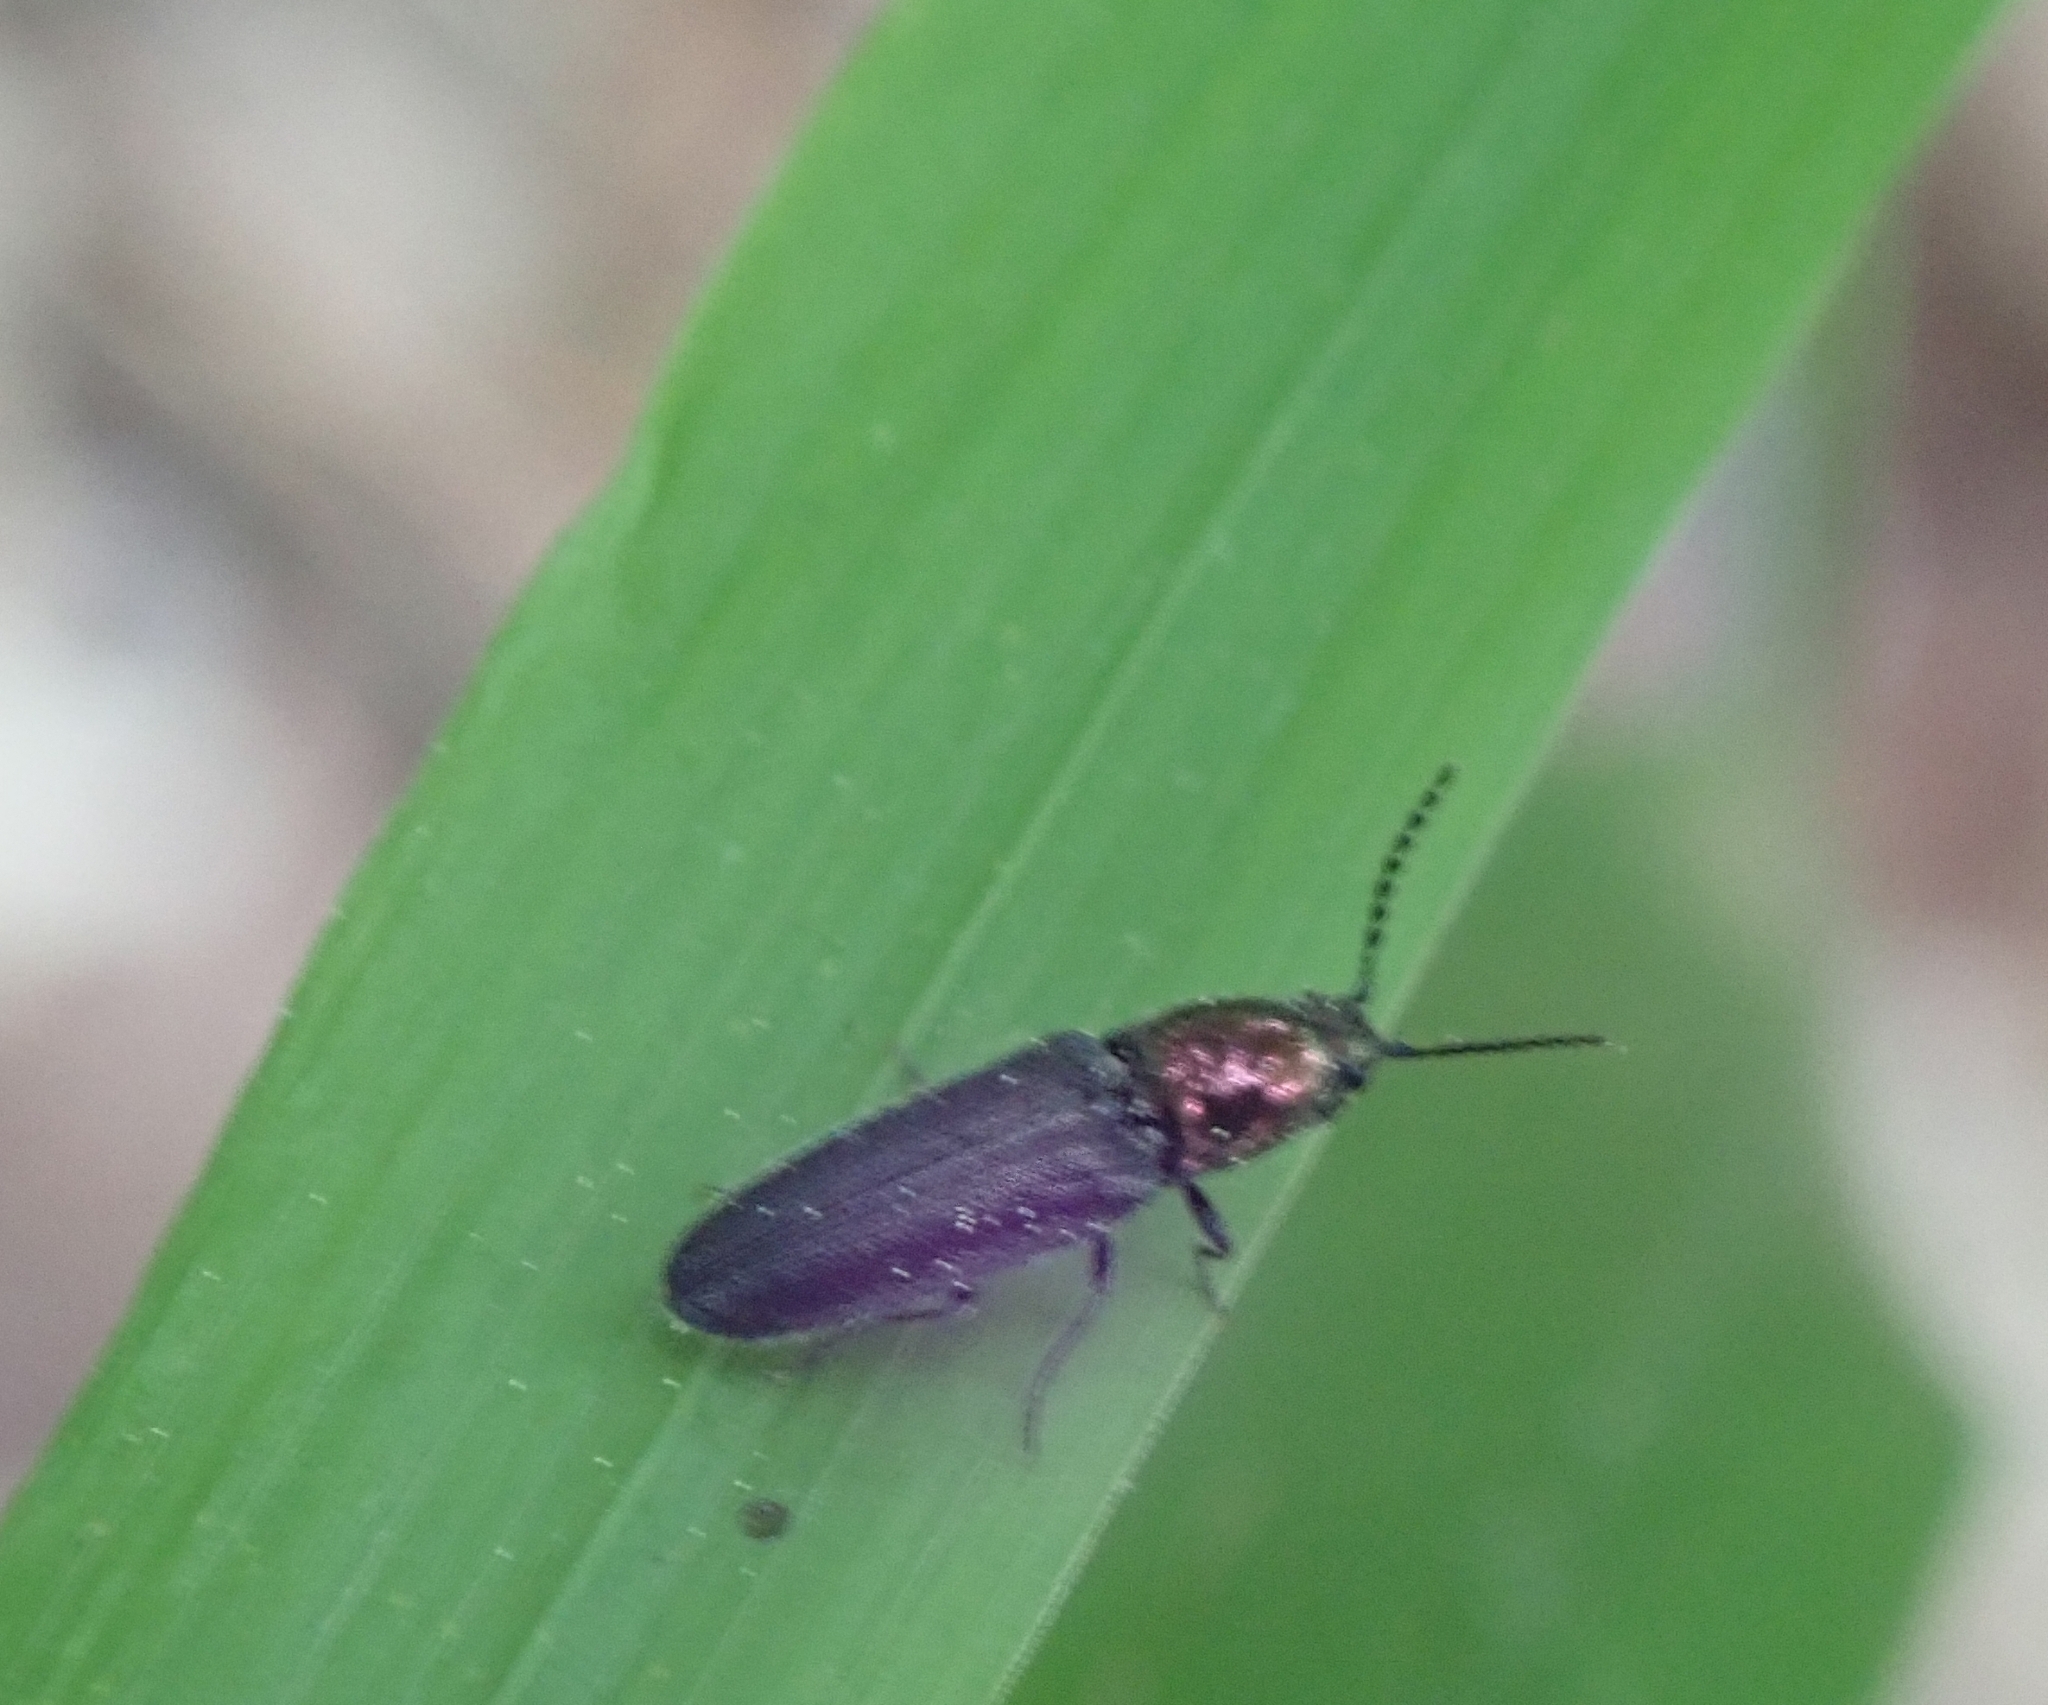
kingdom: Animalia
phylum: Arthropoda
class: Insecta
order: Coleoptera
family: Elateridae
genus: Limonius
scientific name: Limonius aurifer
